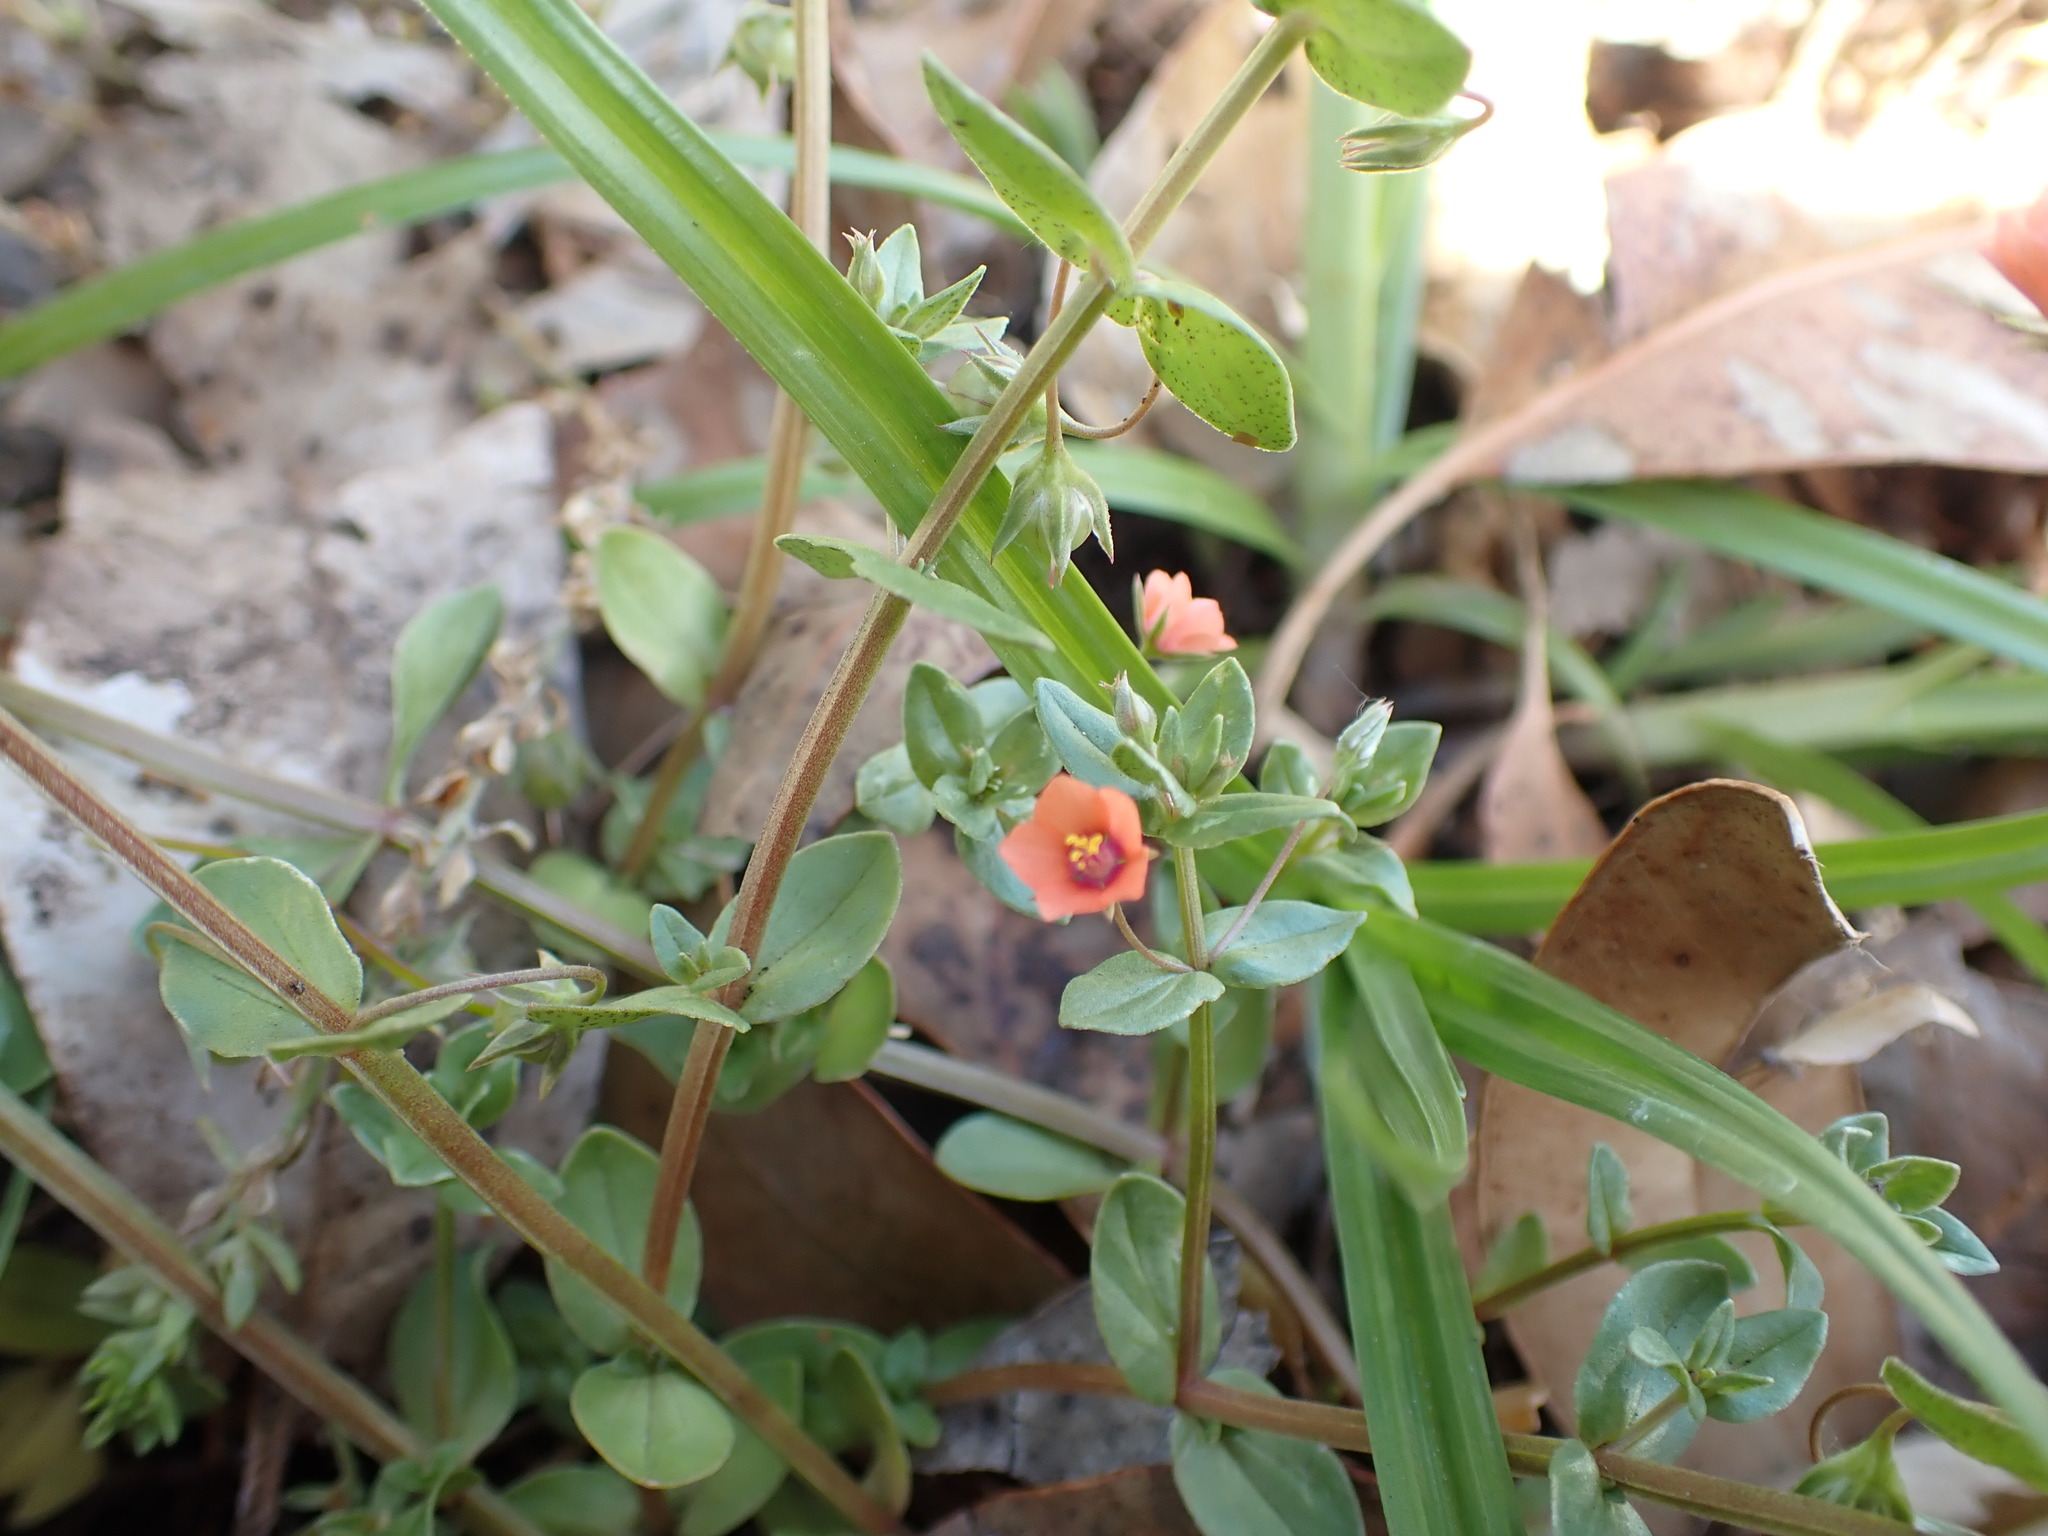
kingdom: Plantae
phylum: Tracheophyta
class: Magnoliopsida
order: Ericales
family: Primulaceae
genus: Lysimachia
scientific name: Lysimachia arvensis
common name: Scarlet pimpernel
